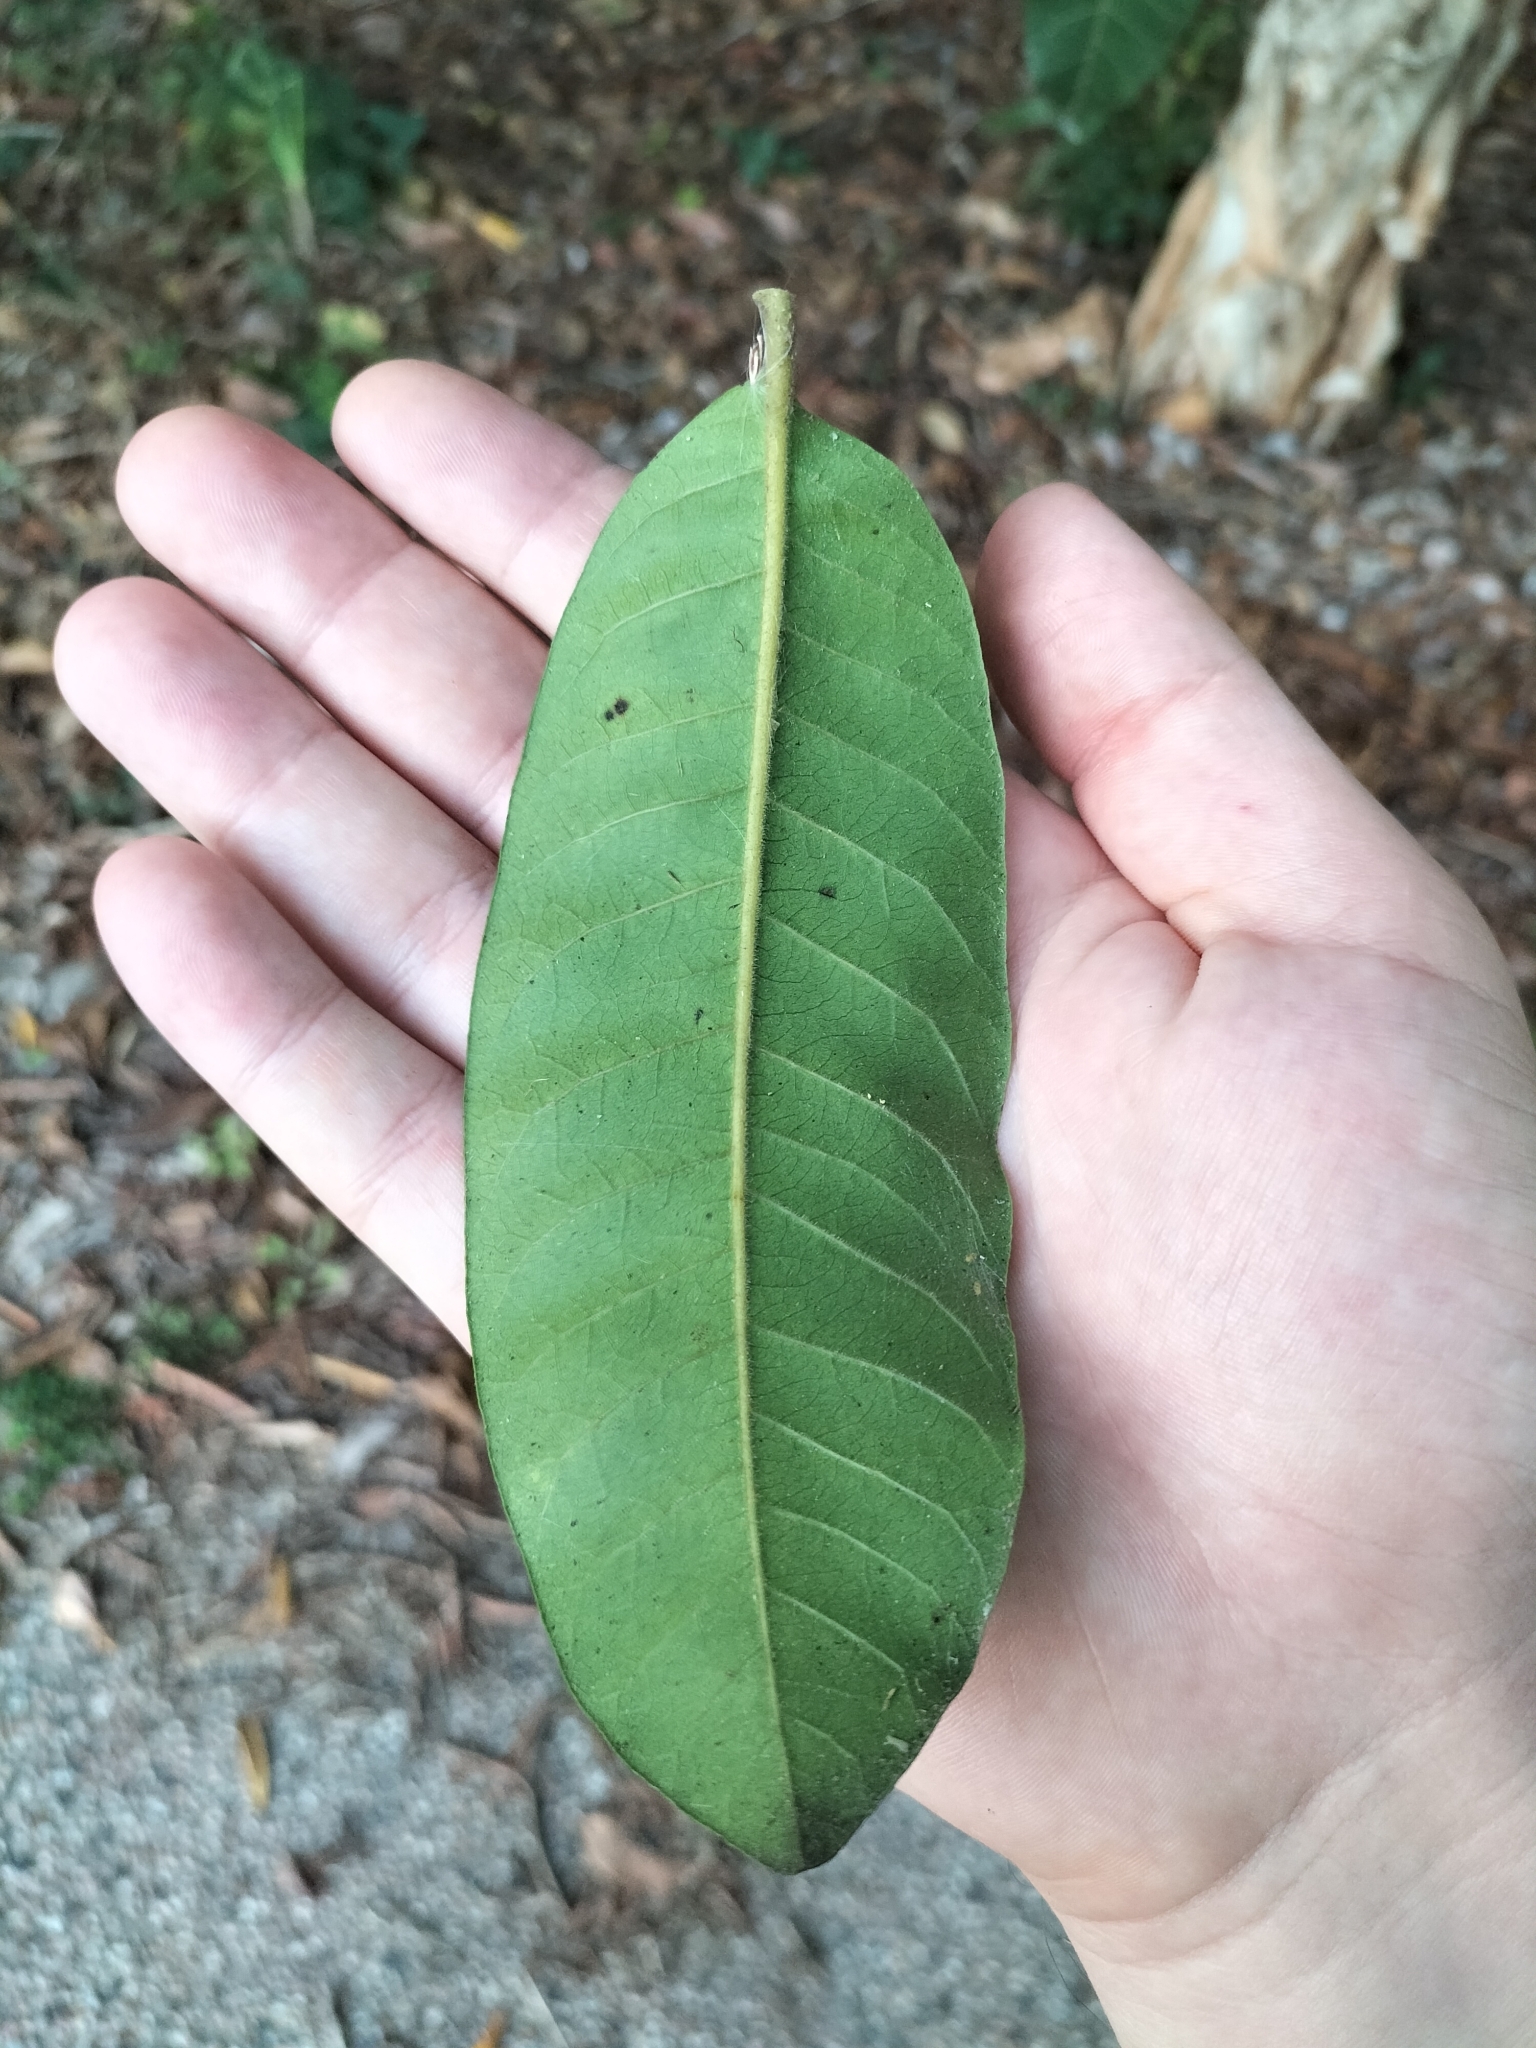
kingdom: Plantae
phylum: Tracheophyta
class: Magnoliopsida
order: Sapindales
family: Anacardiaceae
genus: Melanococca
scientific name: Melanococca tomentosa
